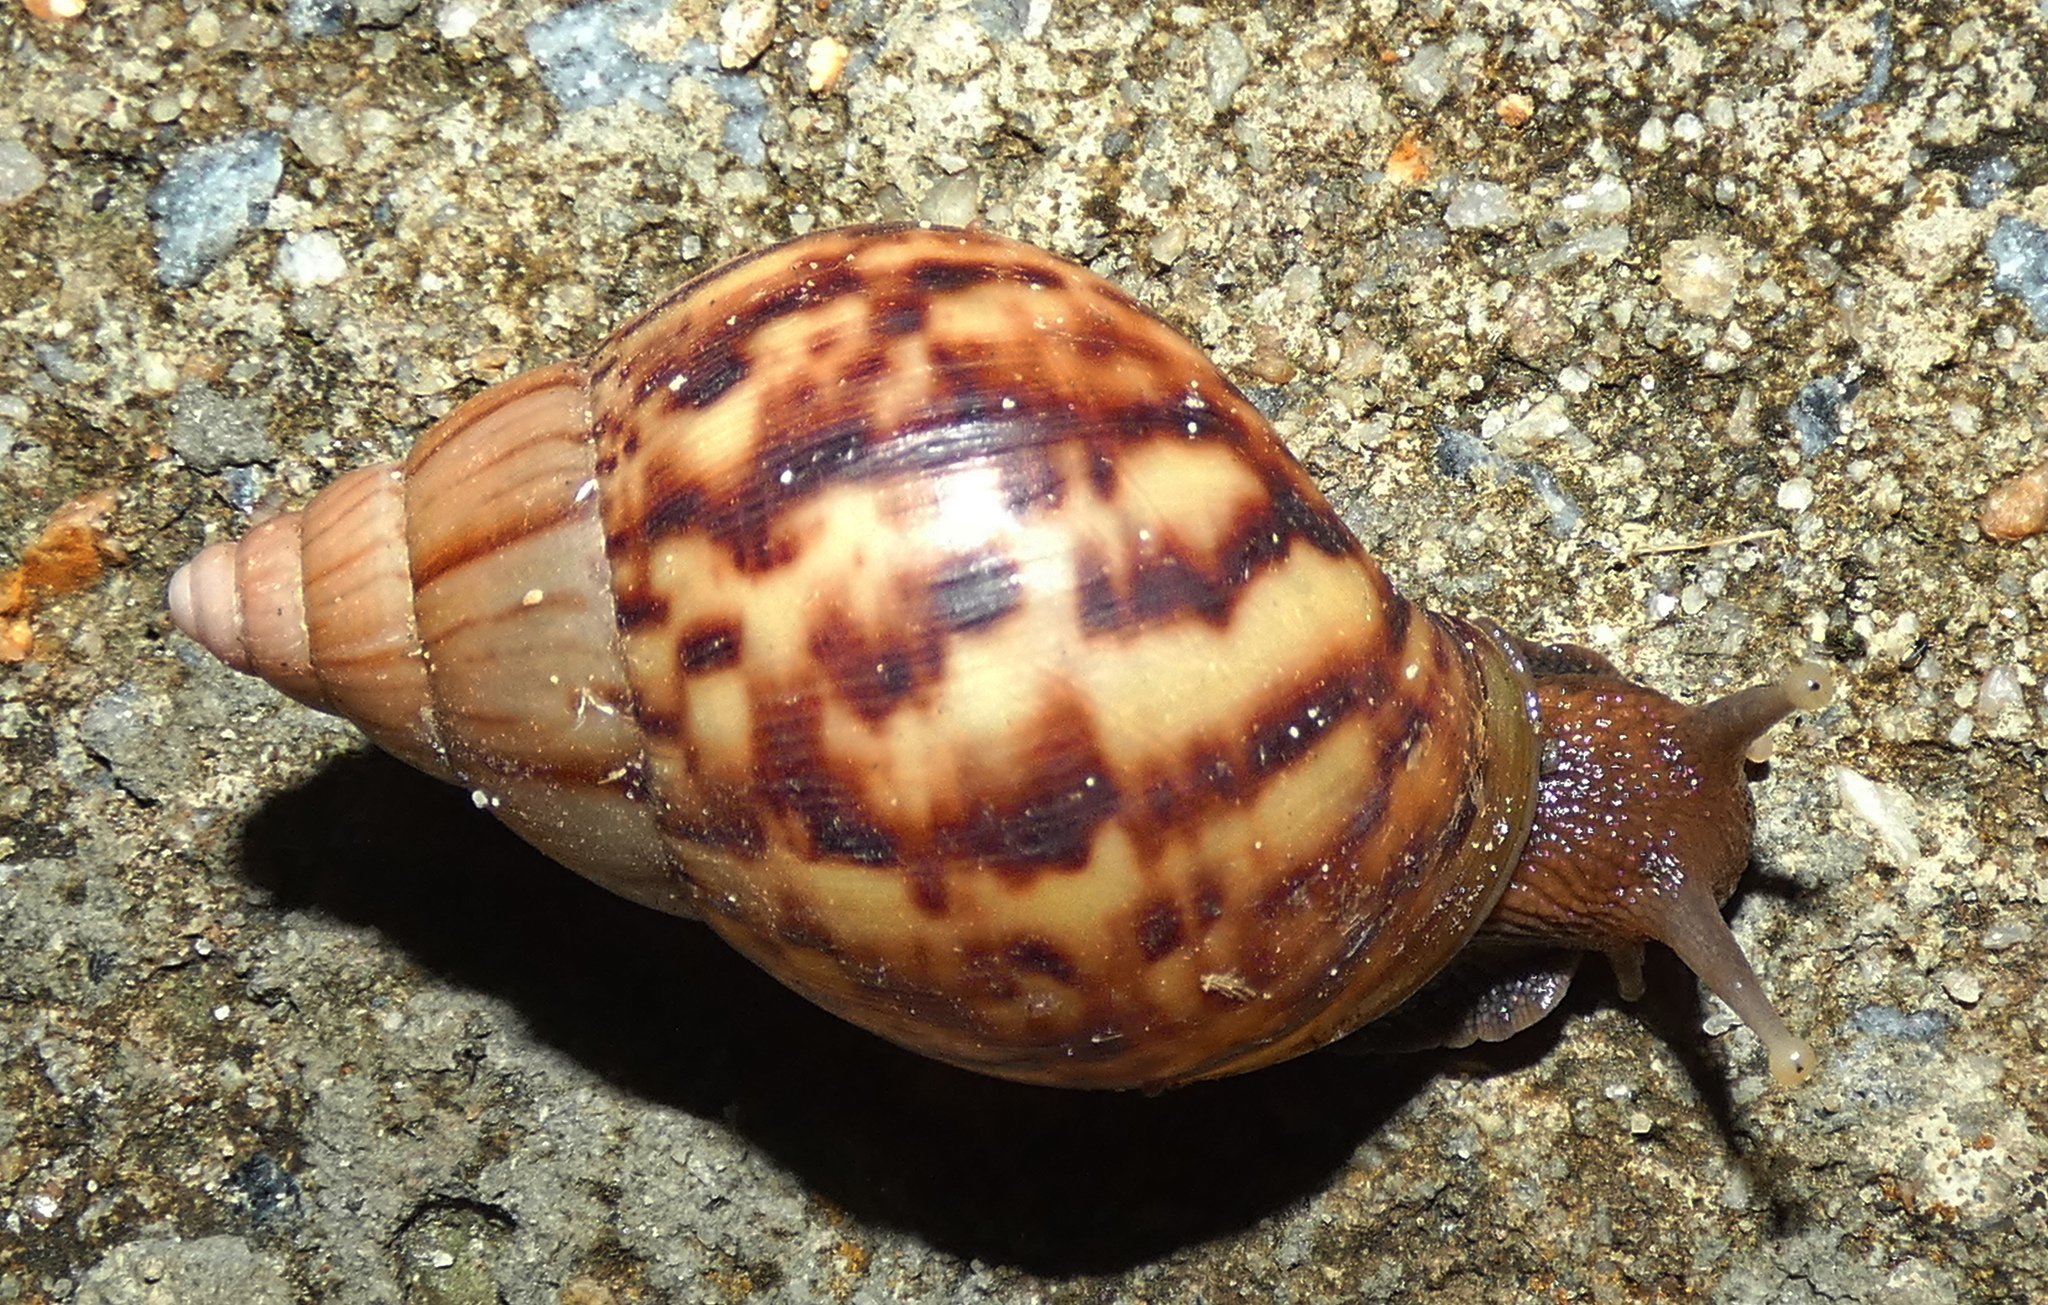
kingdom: Animalia
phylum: Mollusca
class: Gastropoda
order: Stylommatophora
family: Achatinidae
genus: Lissachatina
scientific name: Lissachatina fulica
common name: Giant african snail
